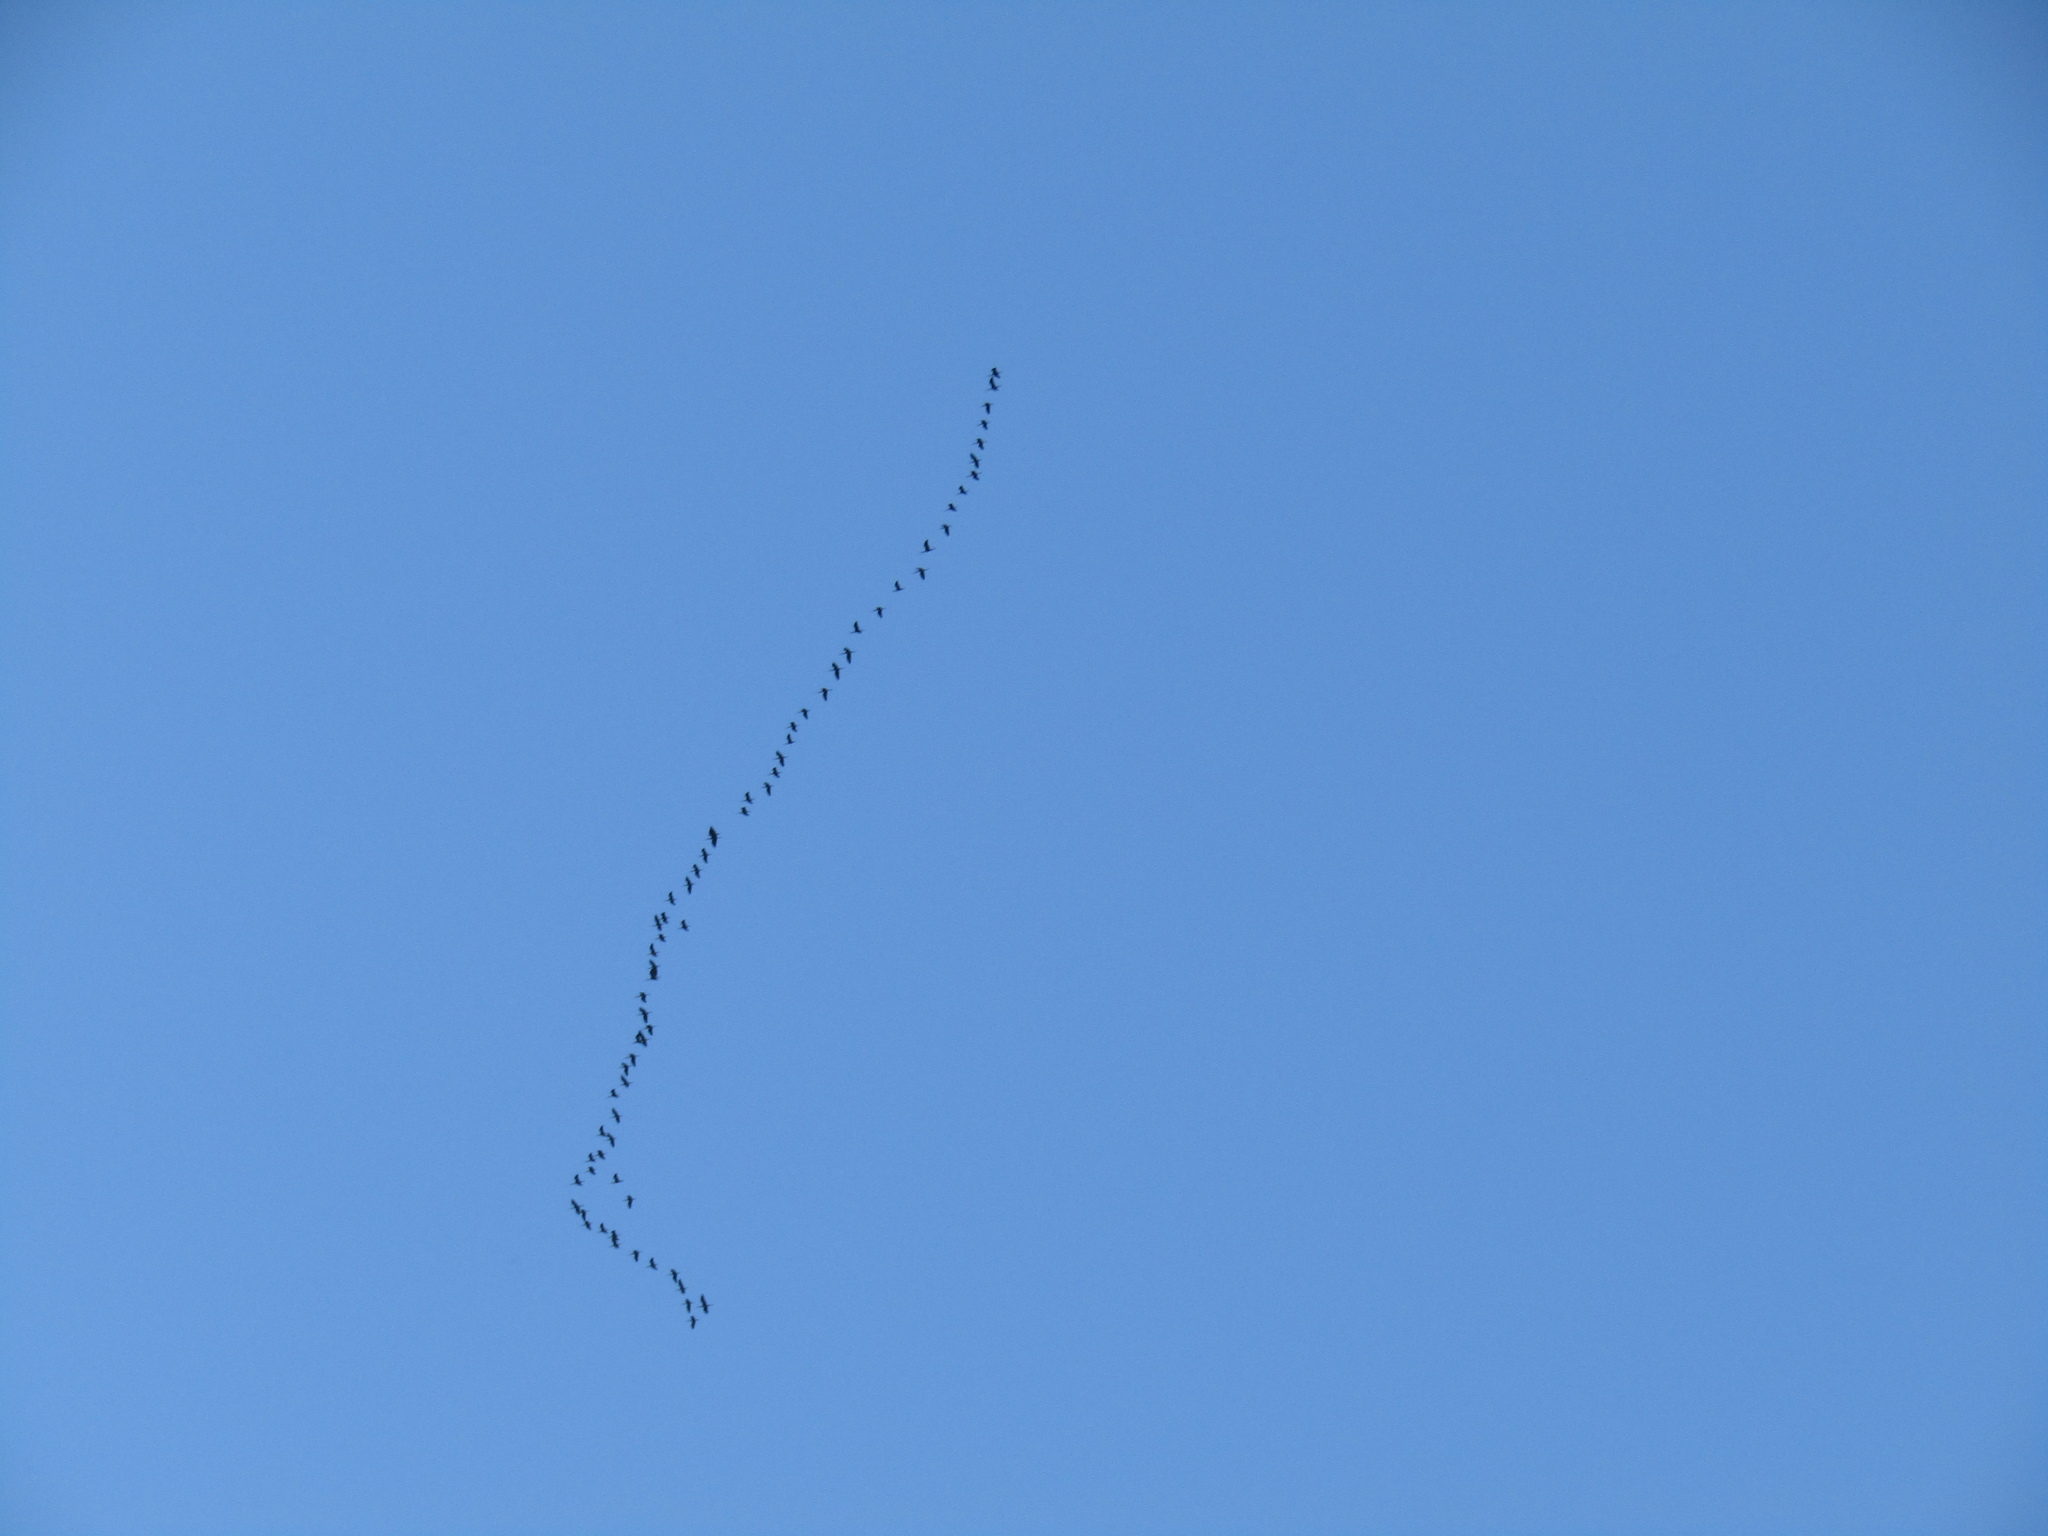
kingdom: Animalia
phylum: Chordata
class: Aves
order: Pelecaniformes
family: Threskiornithidae
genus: Plegadis
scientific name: Plegadis chihi
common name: White-faced ibis
